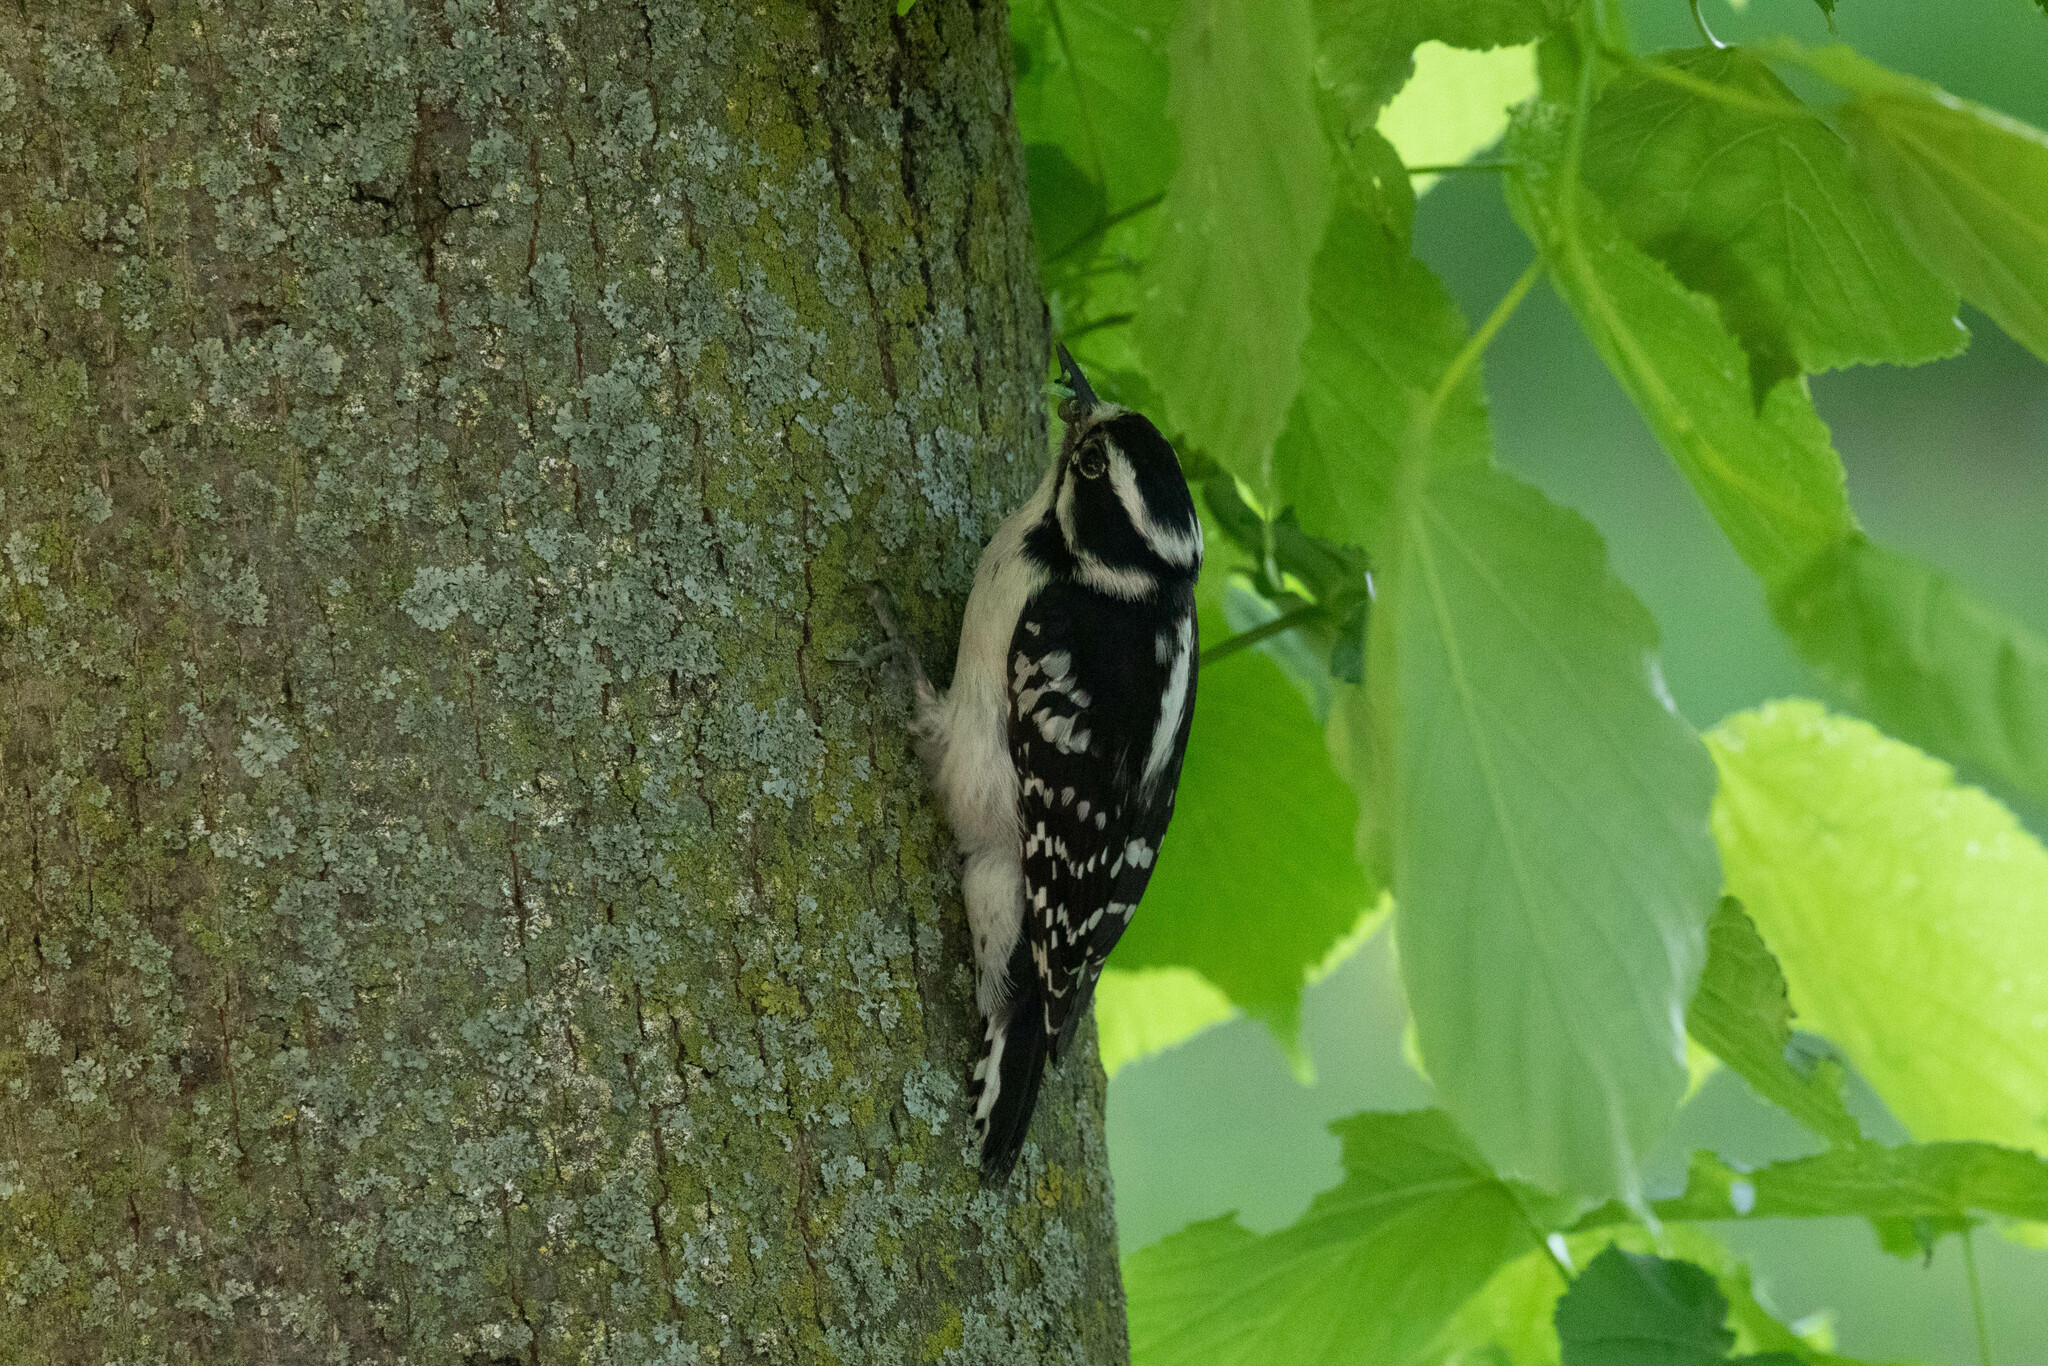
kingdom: Animalia
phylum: Chordata
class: Aves
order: Piciformes
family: Picidae
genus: Dryobates
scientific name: Dryobates pubescens
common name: Downy woodpecker
